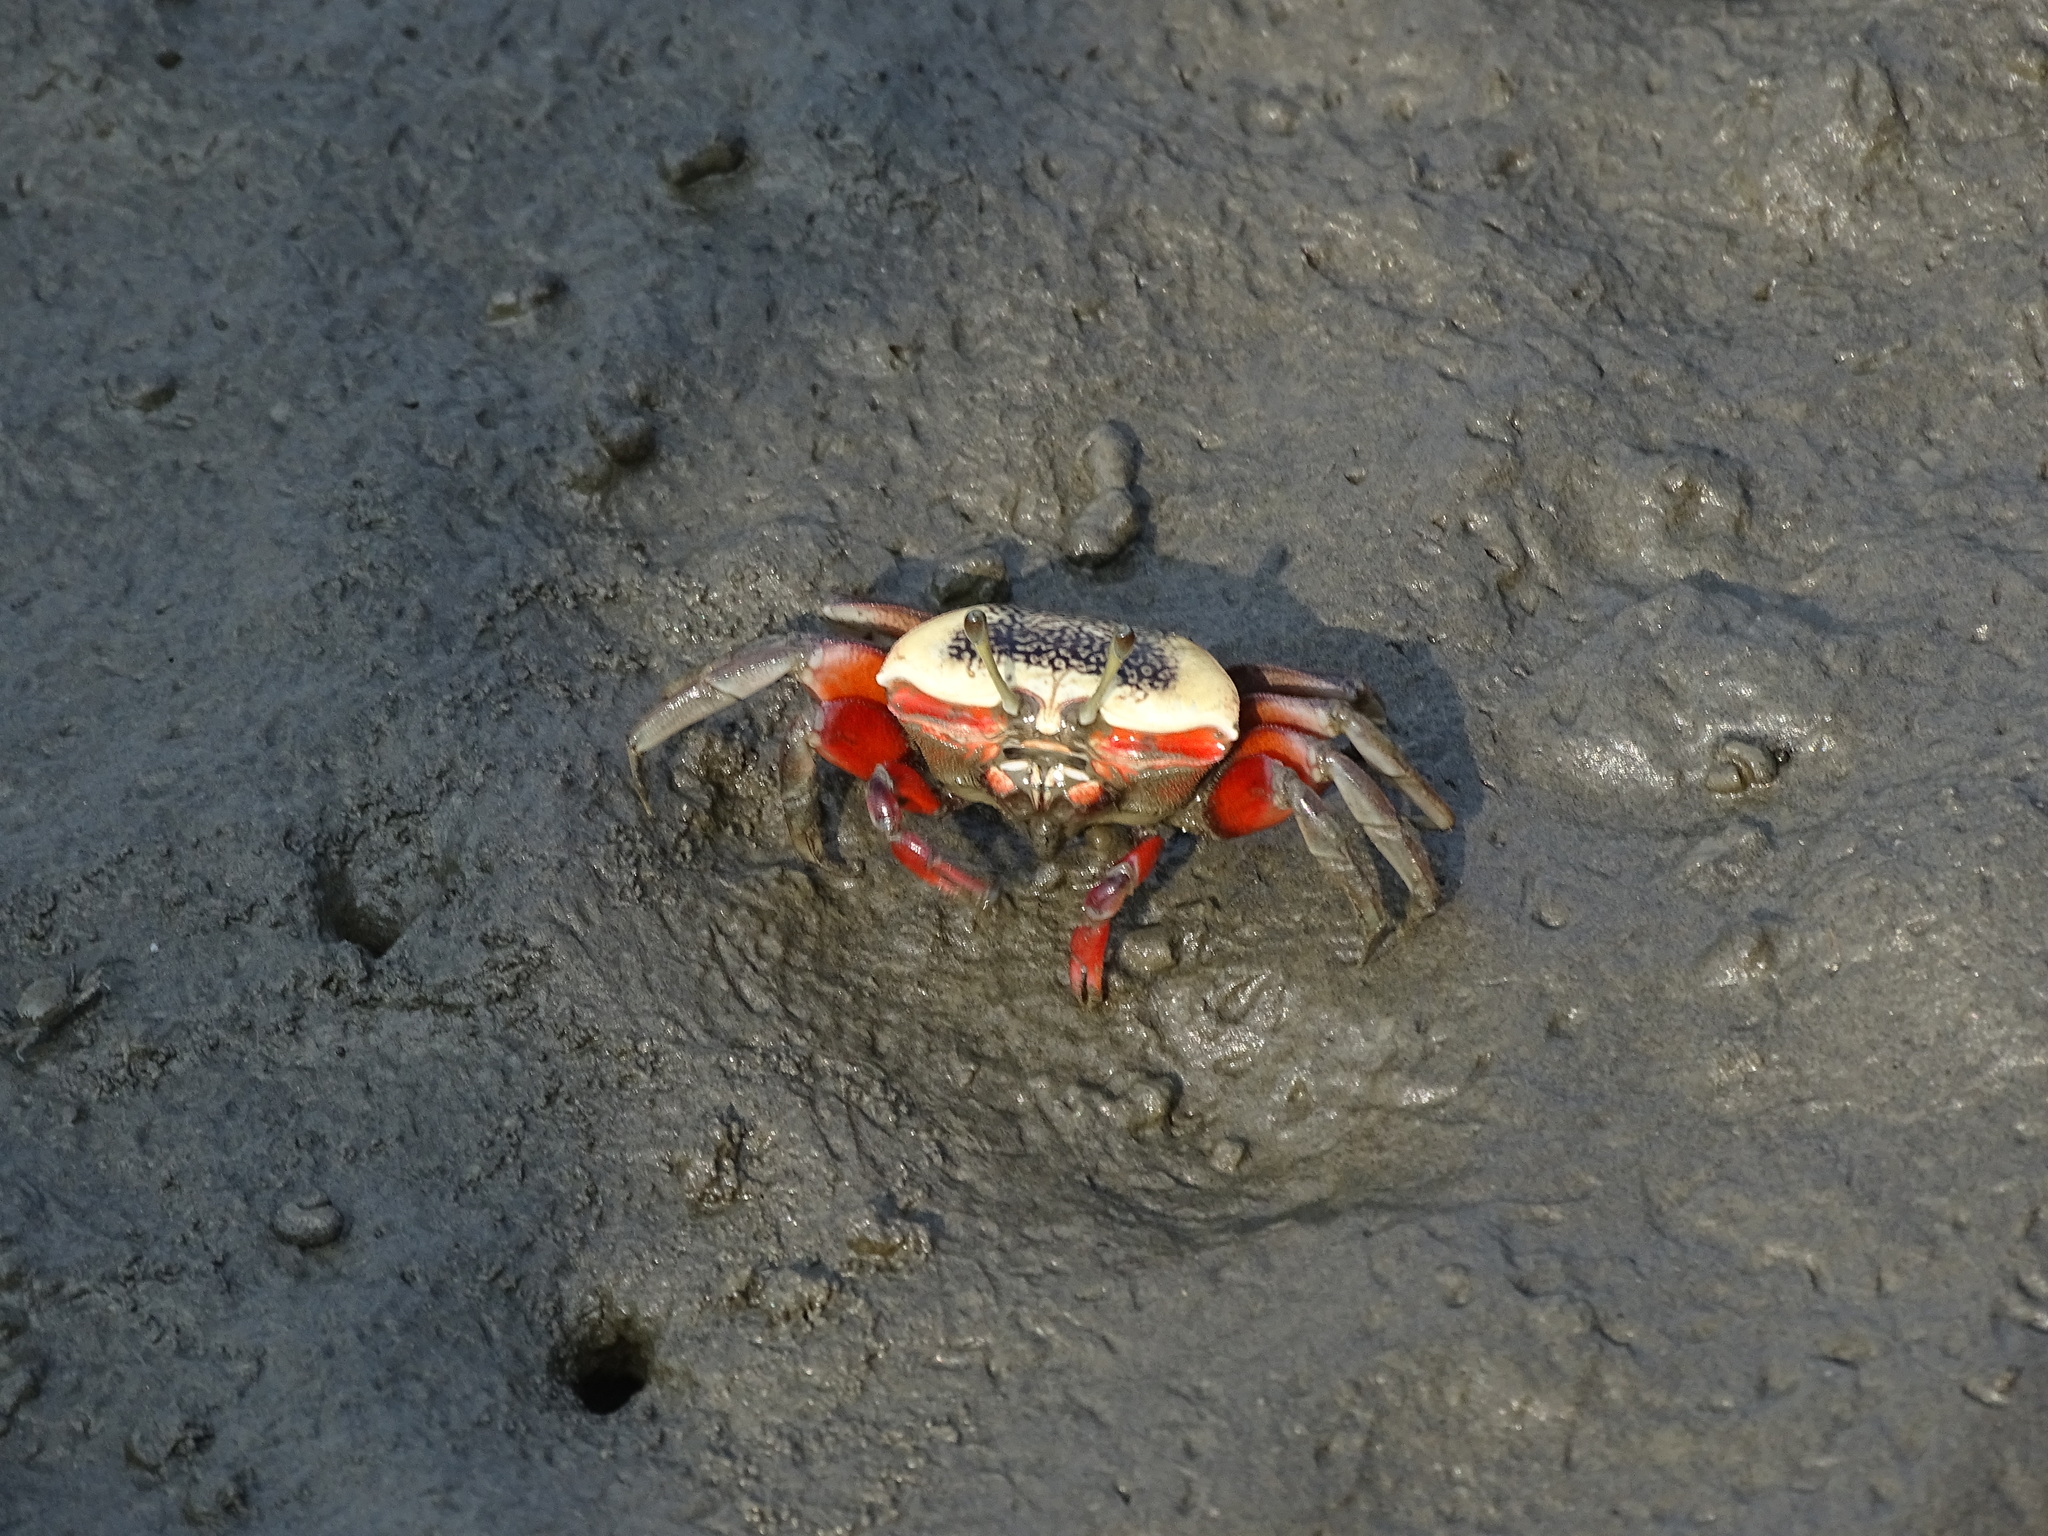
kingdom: Animalia
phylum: Arthropoda
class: Malacostraca
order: Decapoda
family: Ocypodidae
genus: Tubuca
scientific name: Tubuca arcuata
